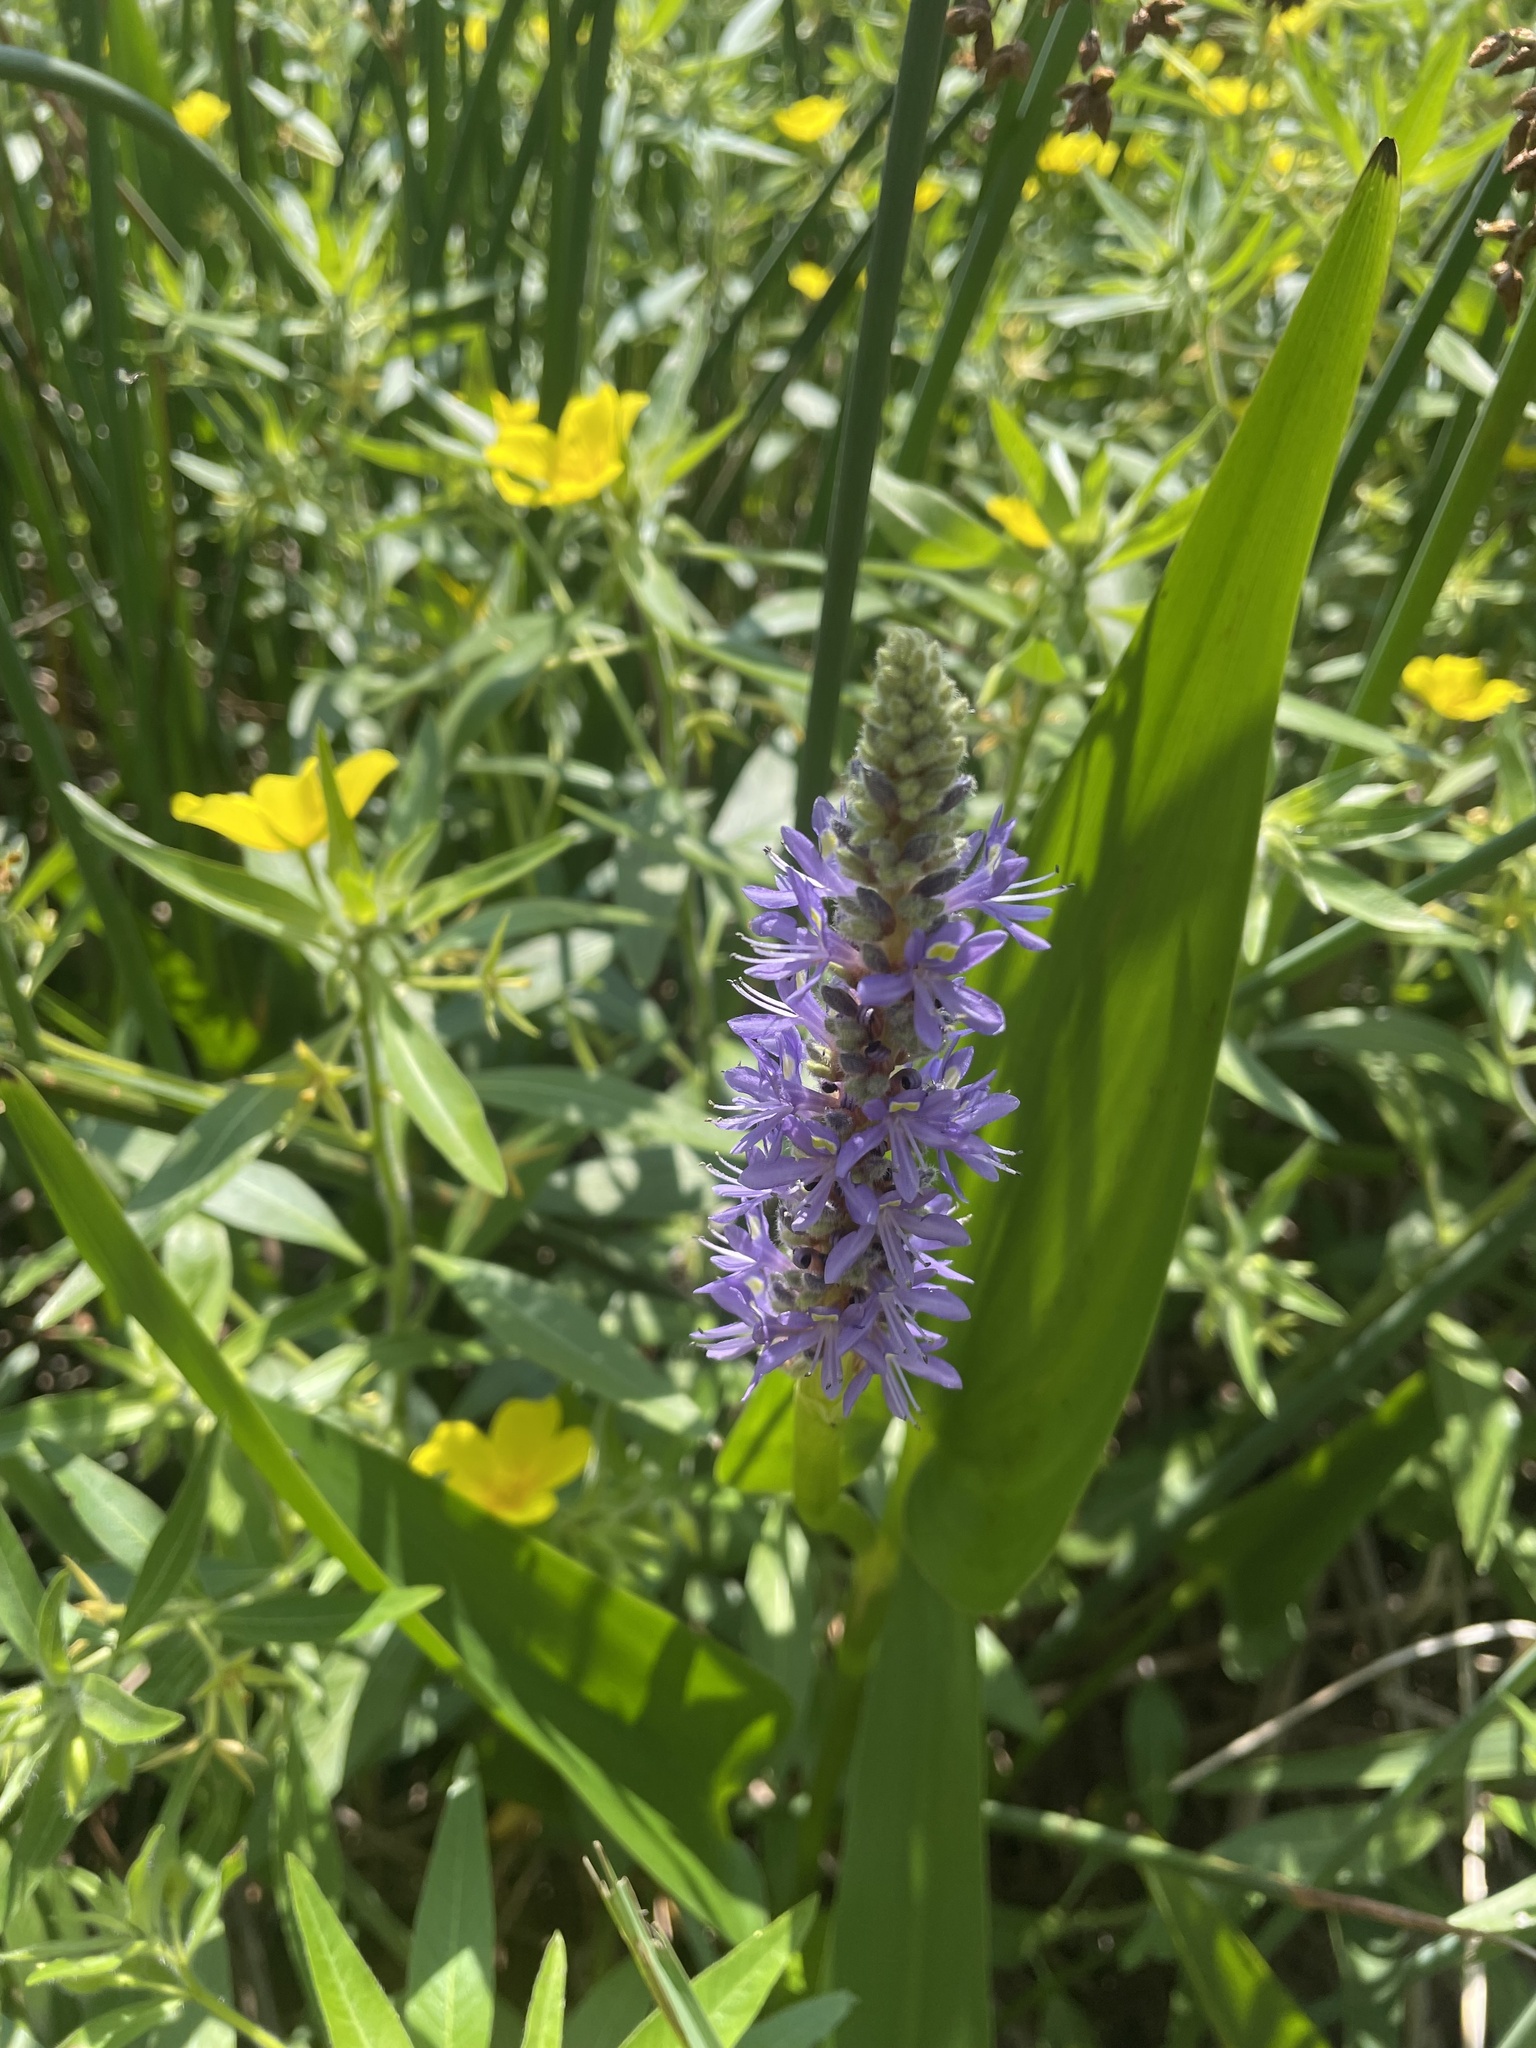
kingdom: Plantae
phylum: Tracheophyta
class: Liliopsida
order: Commelinales
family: Pontederiaceae
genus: Pontederia
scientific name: Pontederia cordata
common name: Pickerelweed
